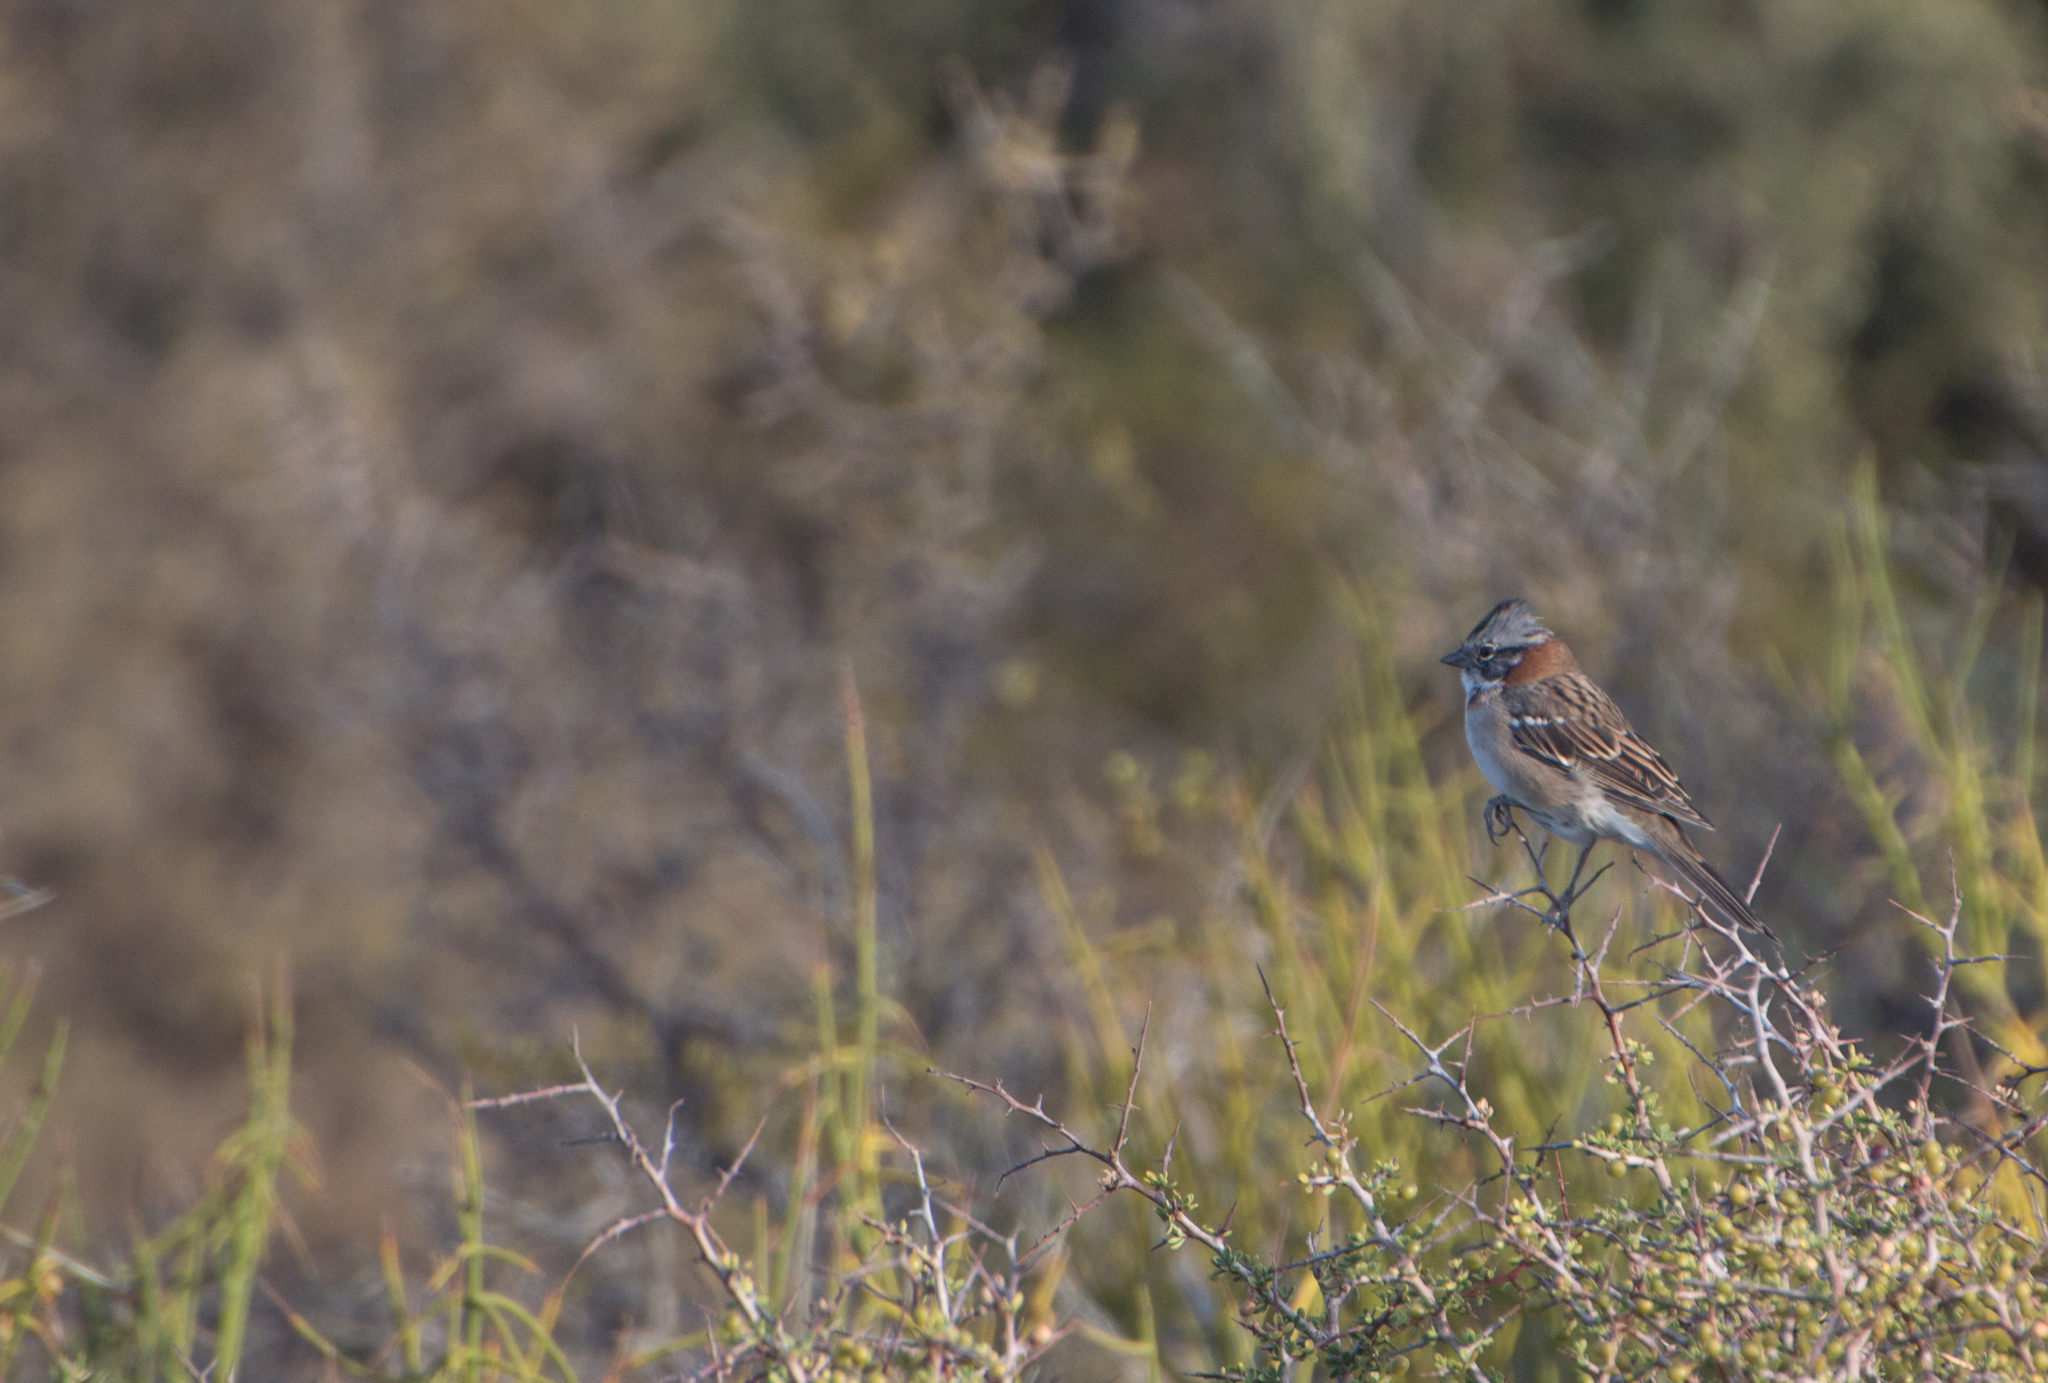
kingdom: Animalia
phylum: Chordata
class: Aves
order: Passeriformes
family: Passerellidae
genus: Zonotrichia
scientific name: Zonotrichia capensis
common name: Rufous-collared sparrow
